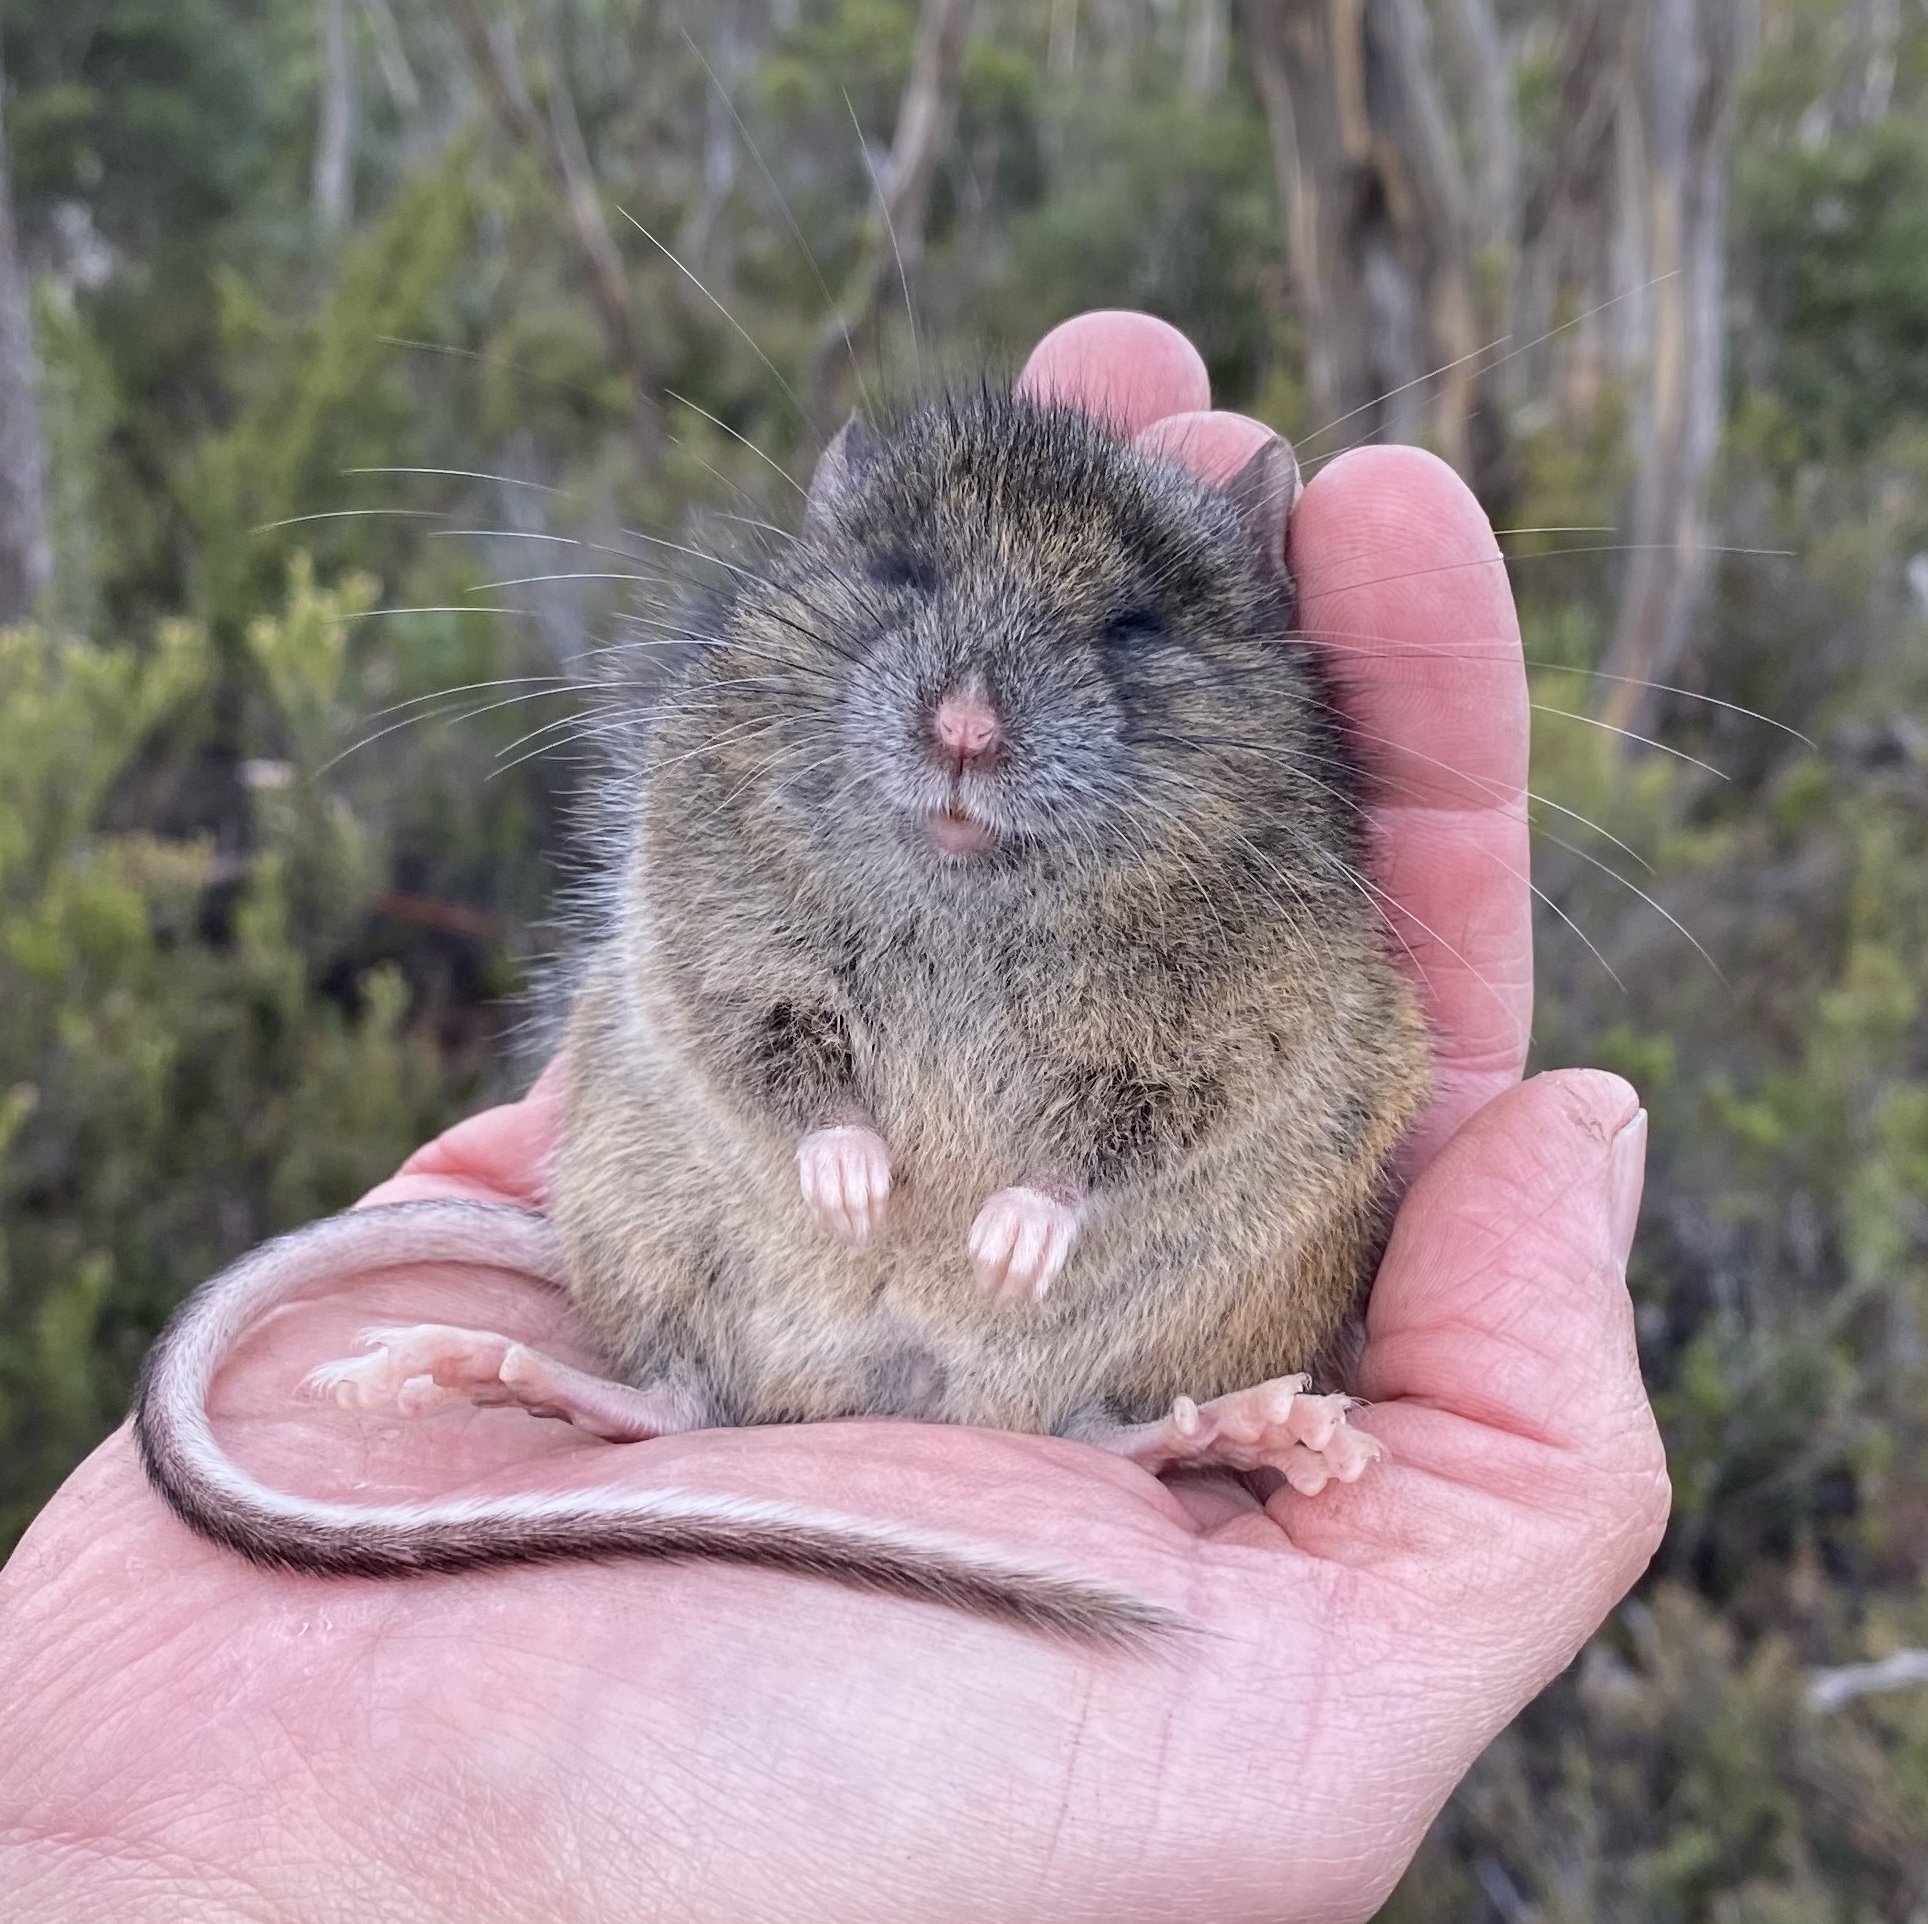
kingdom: Animalia
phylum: Chordata
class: Mammalia
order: Rodentia
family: Muridae
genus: Pseudomys
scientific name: Pseudomys higginsi
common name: Long-tailed pseudomys
